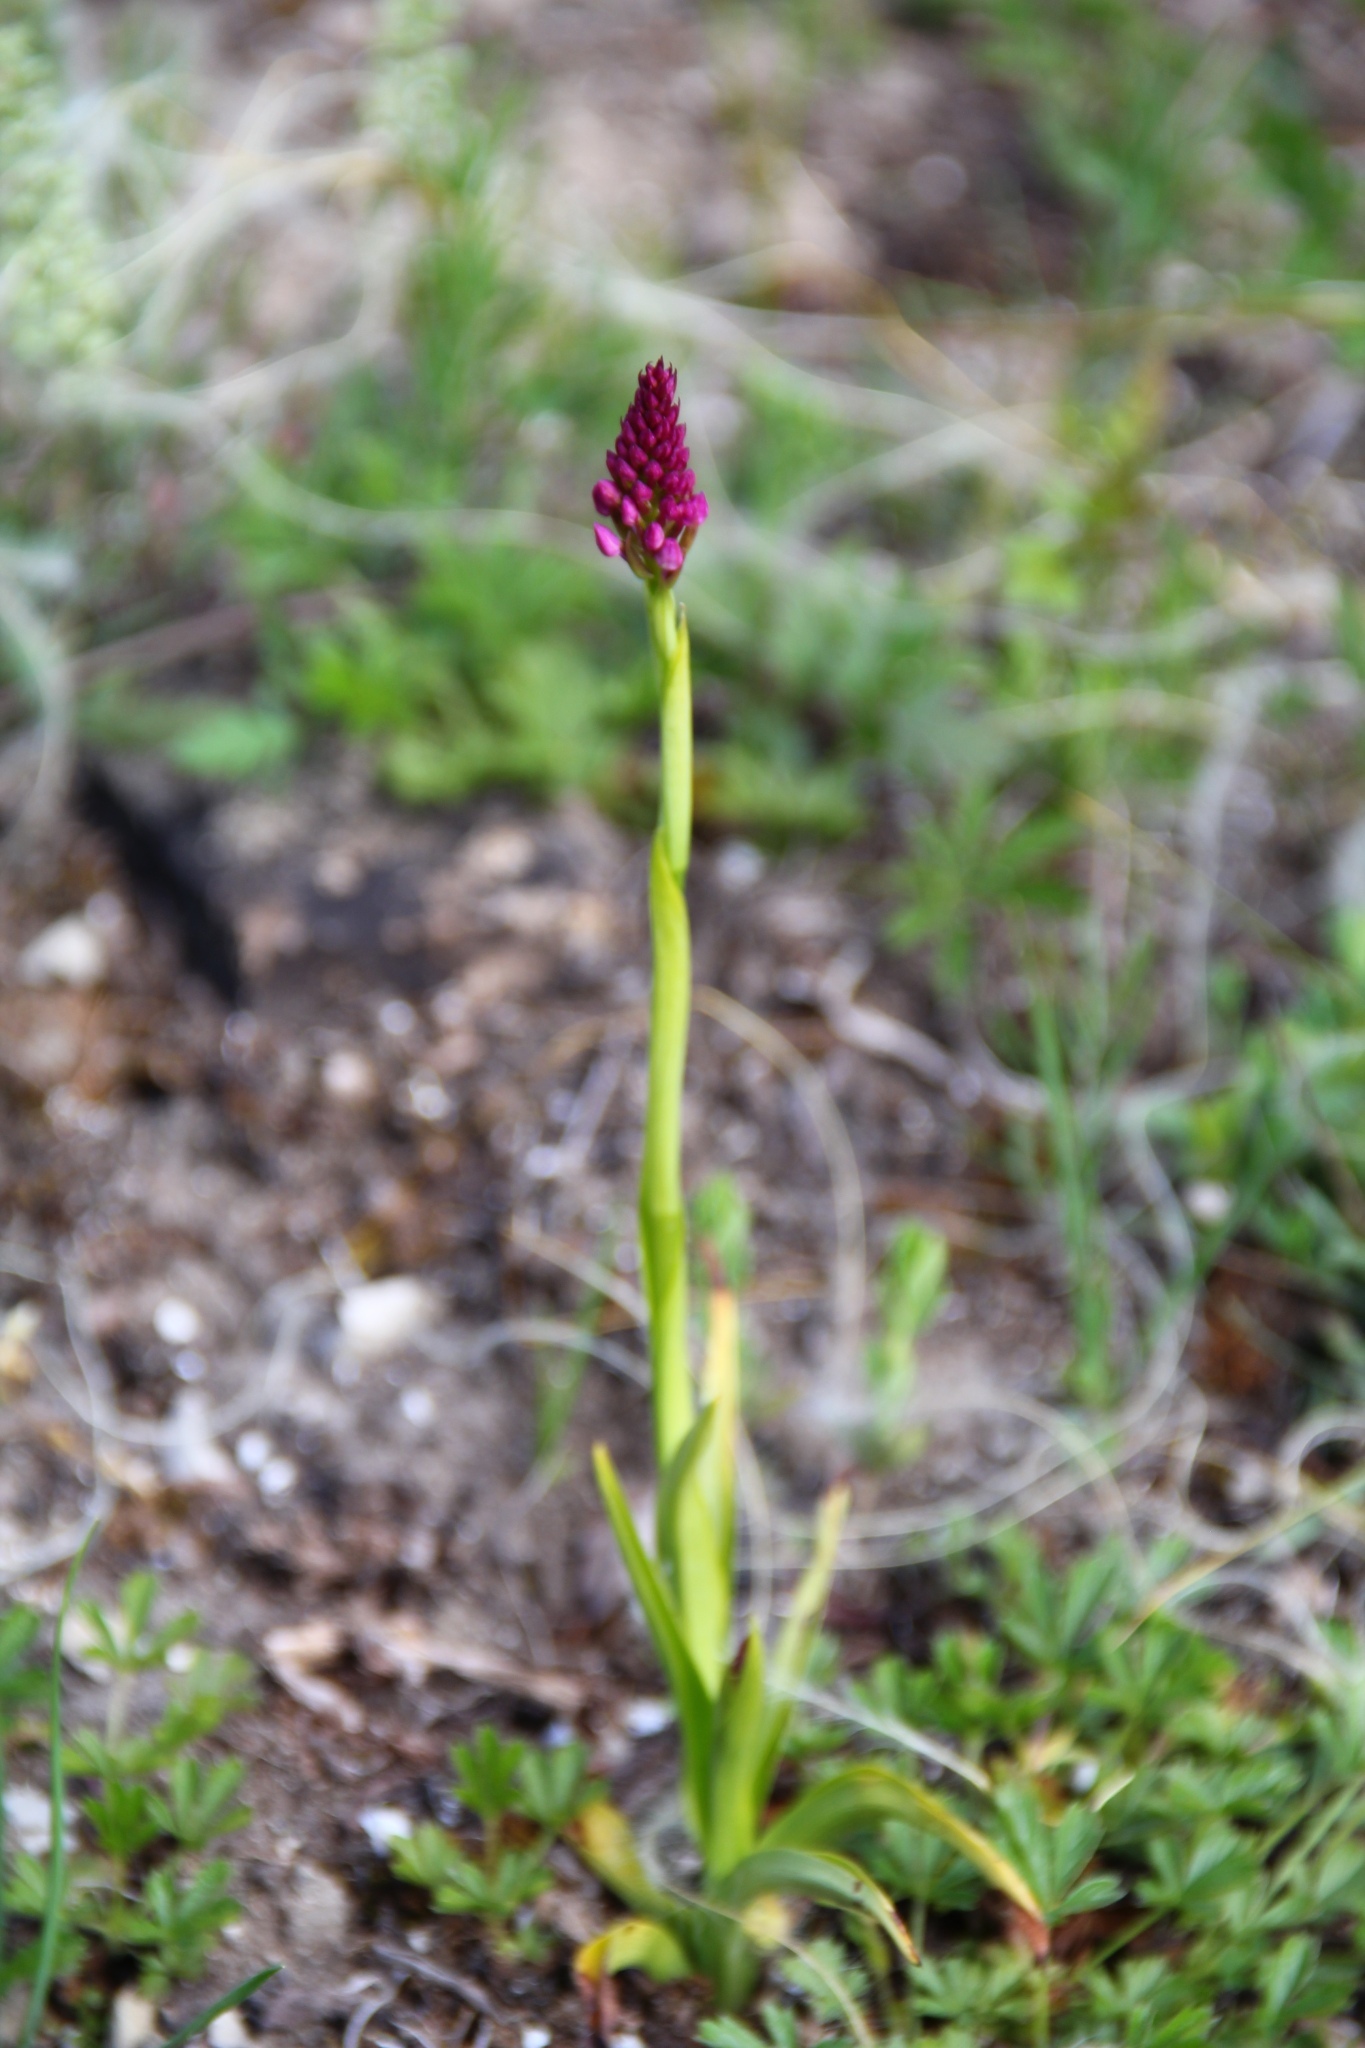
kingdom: Plantae
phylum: Tracheophyta
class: Liliopsida
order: Asparagales
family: Orchidaceae
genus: Anacamptis
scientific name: Anacamptis pyramidalis
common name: Pyramidal orchid
